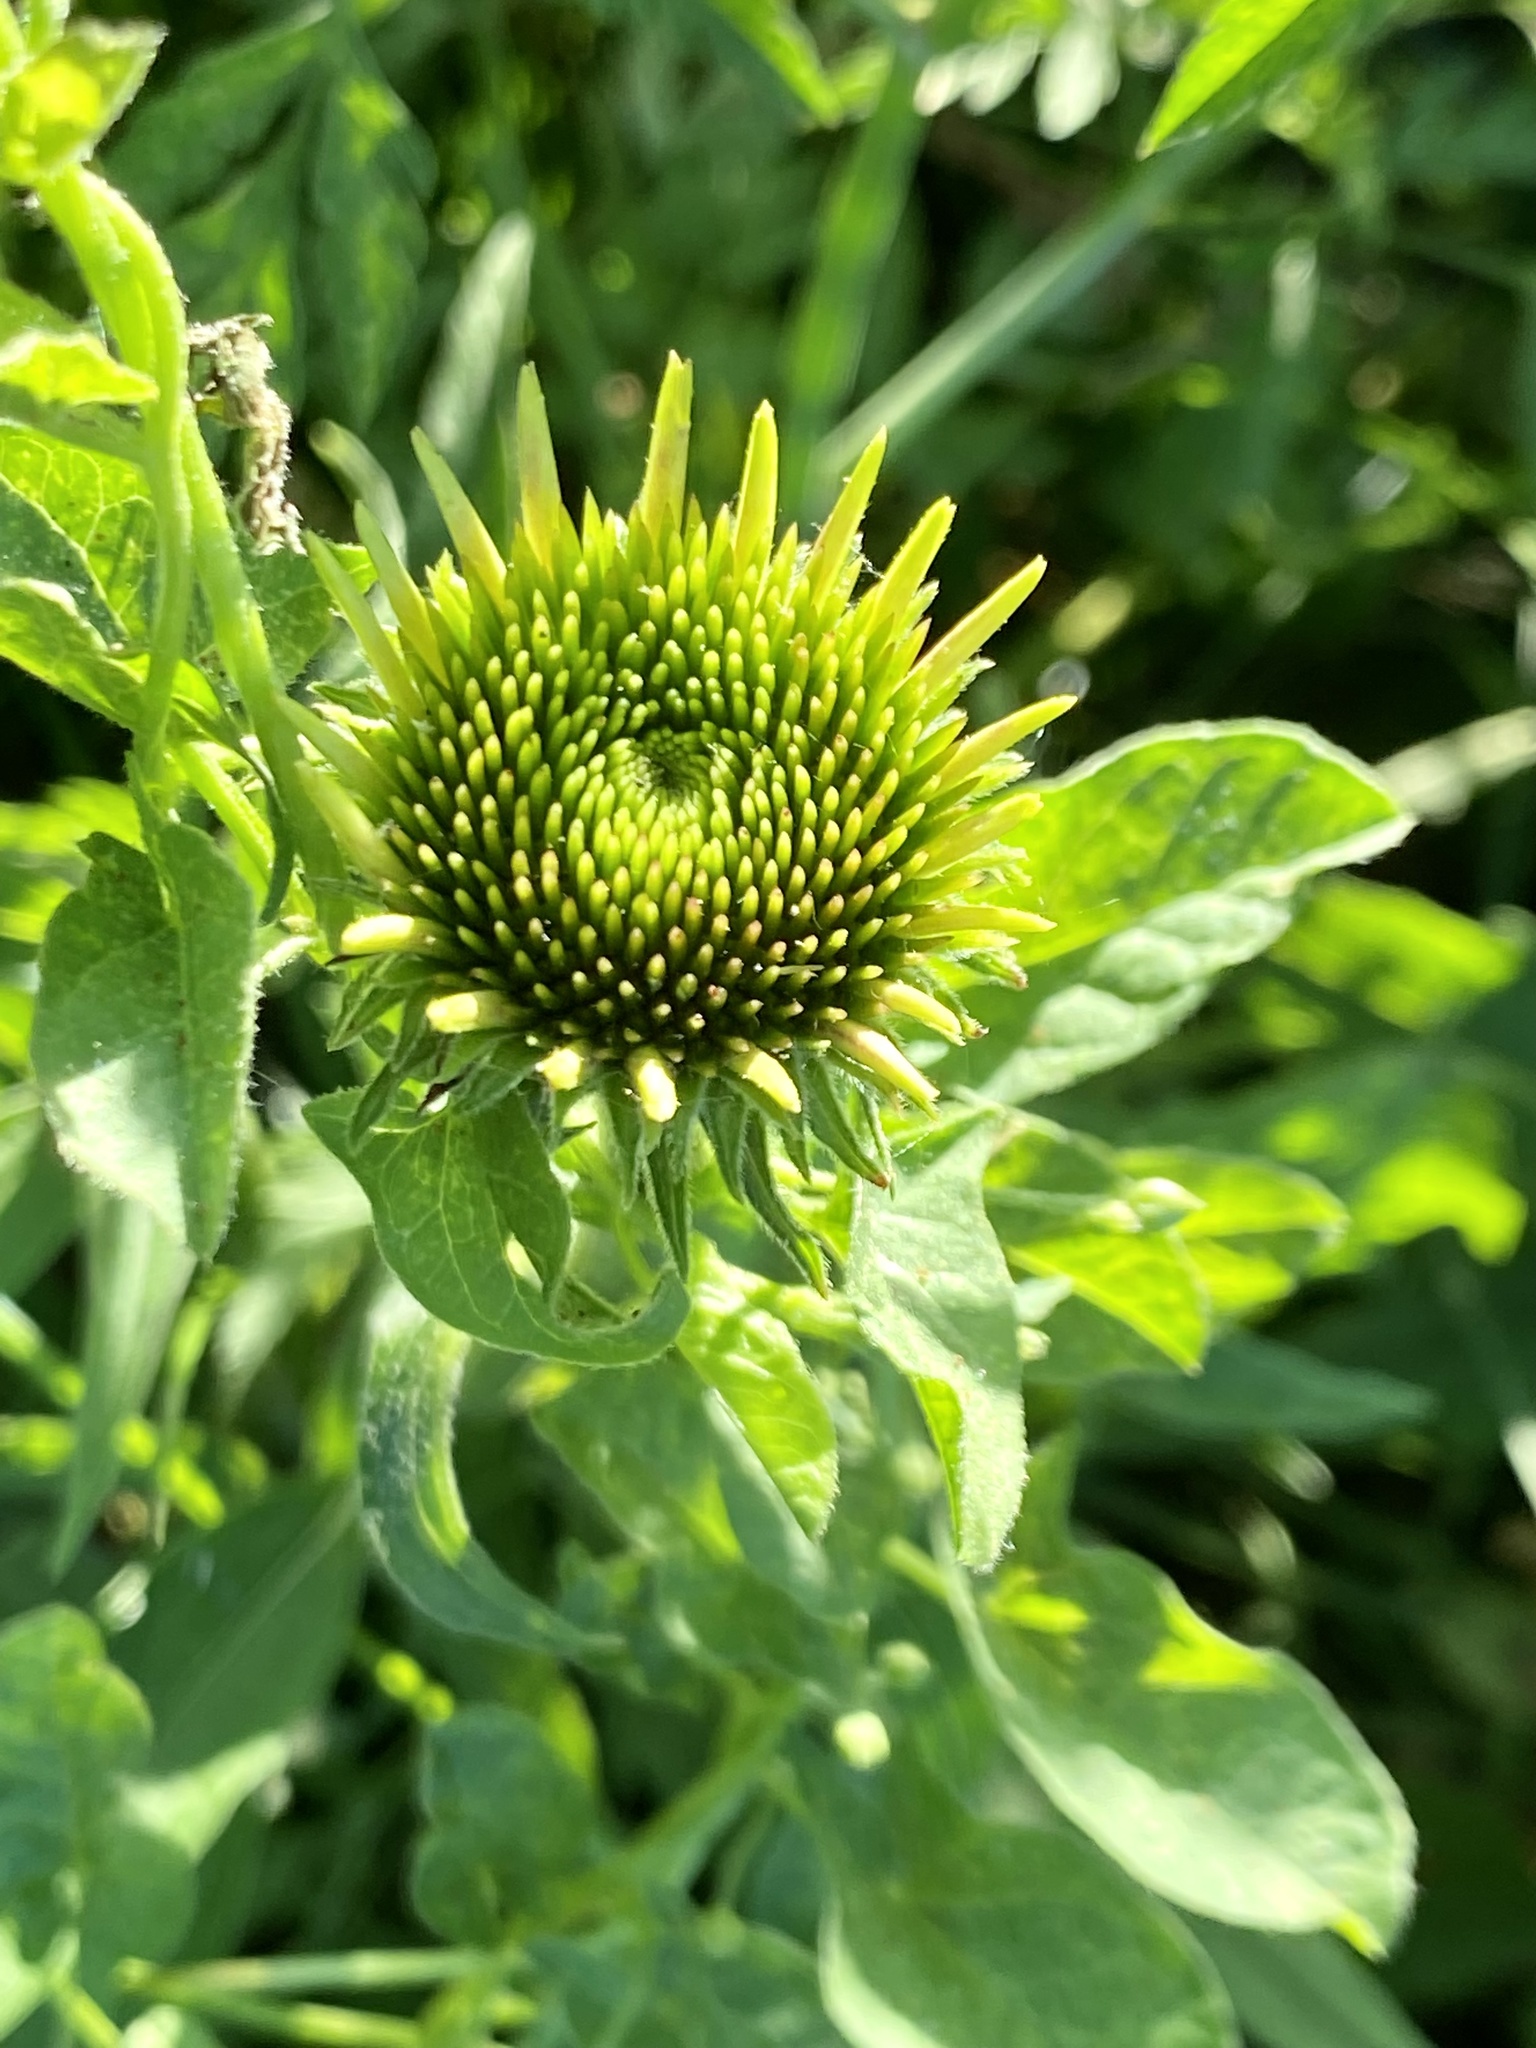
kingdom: Bacteria
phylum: Firmicutes
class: Bacilli
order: Acholeplasmatales
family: Acholeplasmataceae
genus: Phytoplasma
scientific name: Phytoplasma
